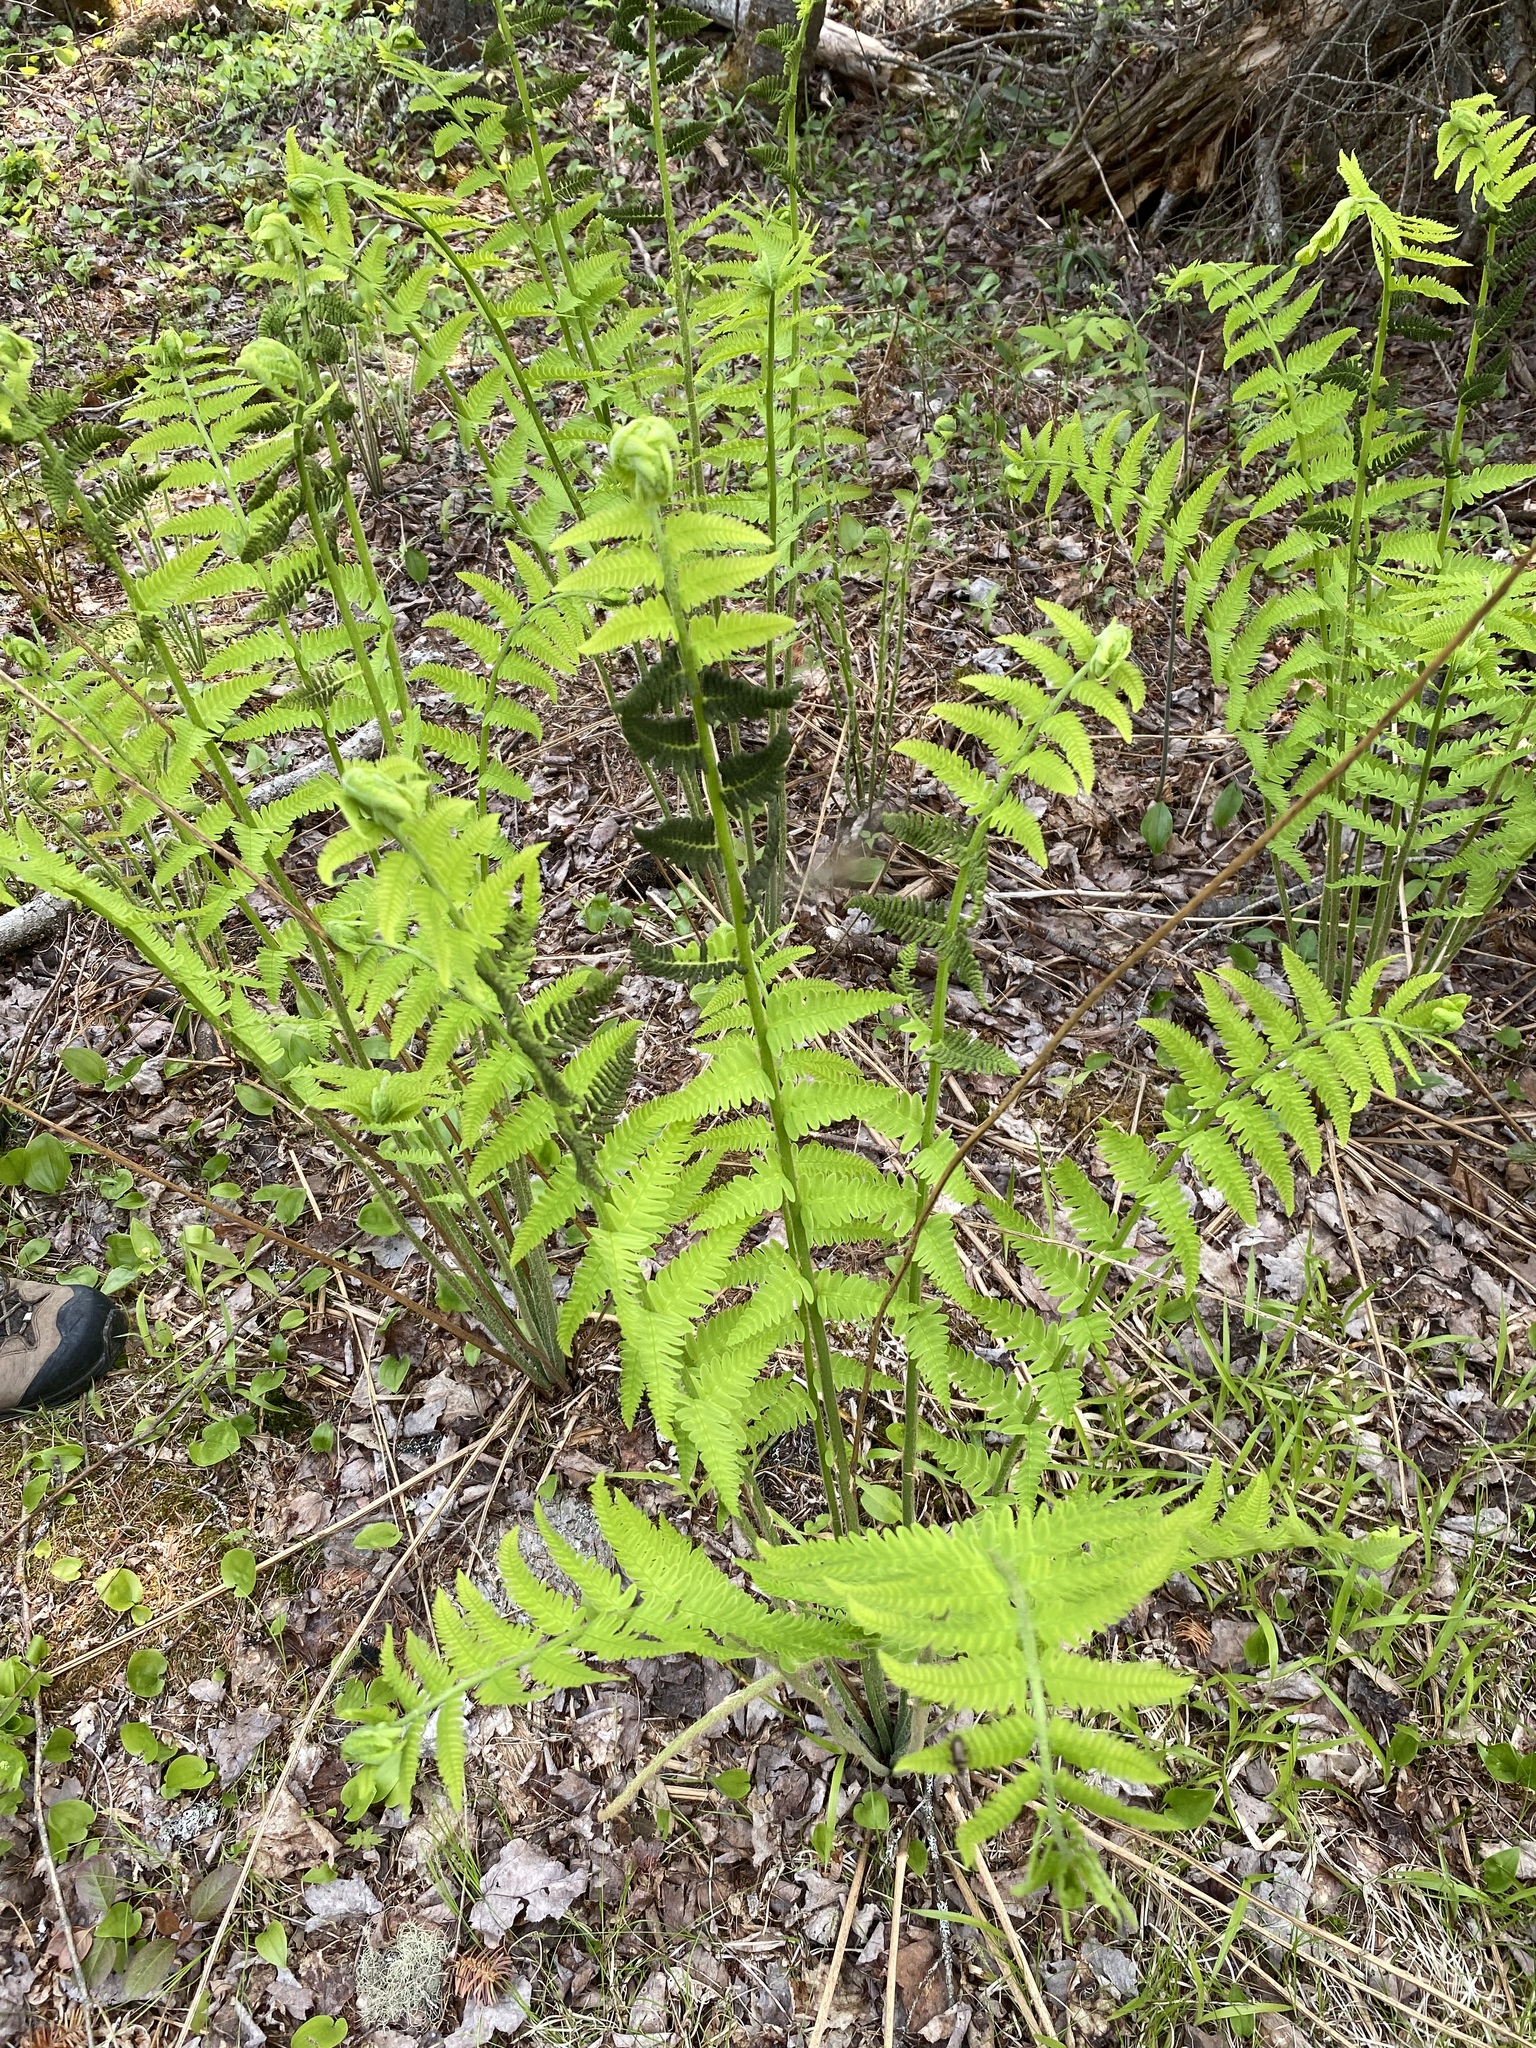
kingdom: Plantae
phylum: Tracheophyta
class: Polypodiopsida
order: Osmundales
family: Osmundaceae
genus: Claytosmunda
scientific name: Claytosmunda claytoniana
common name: Clayton's fern
